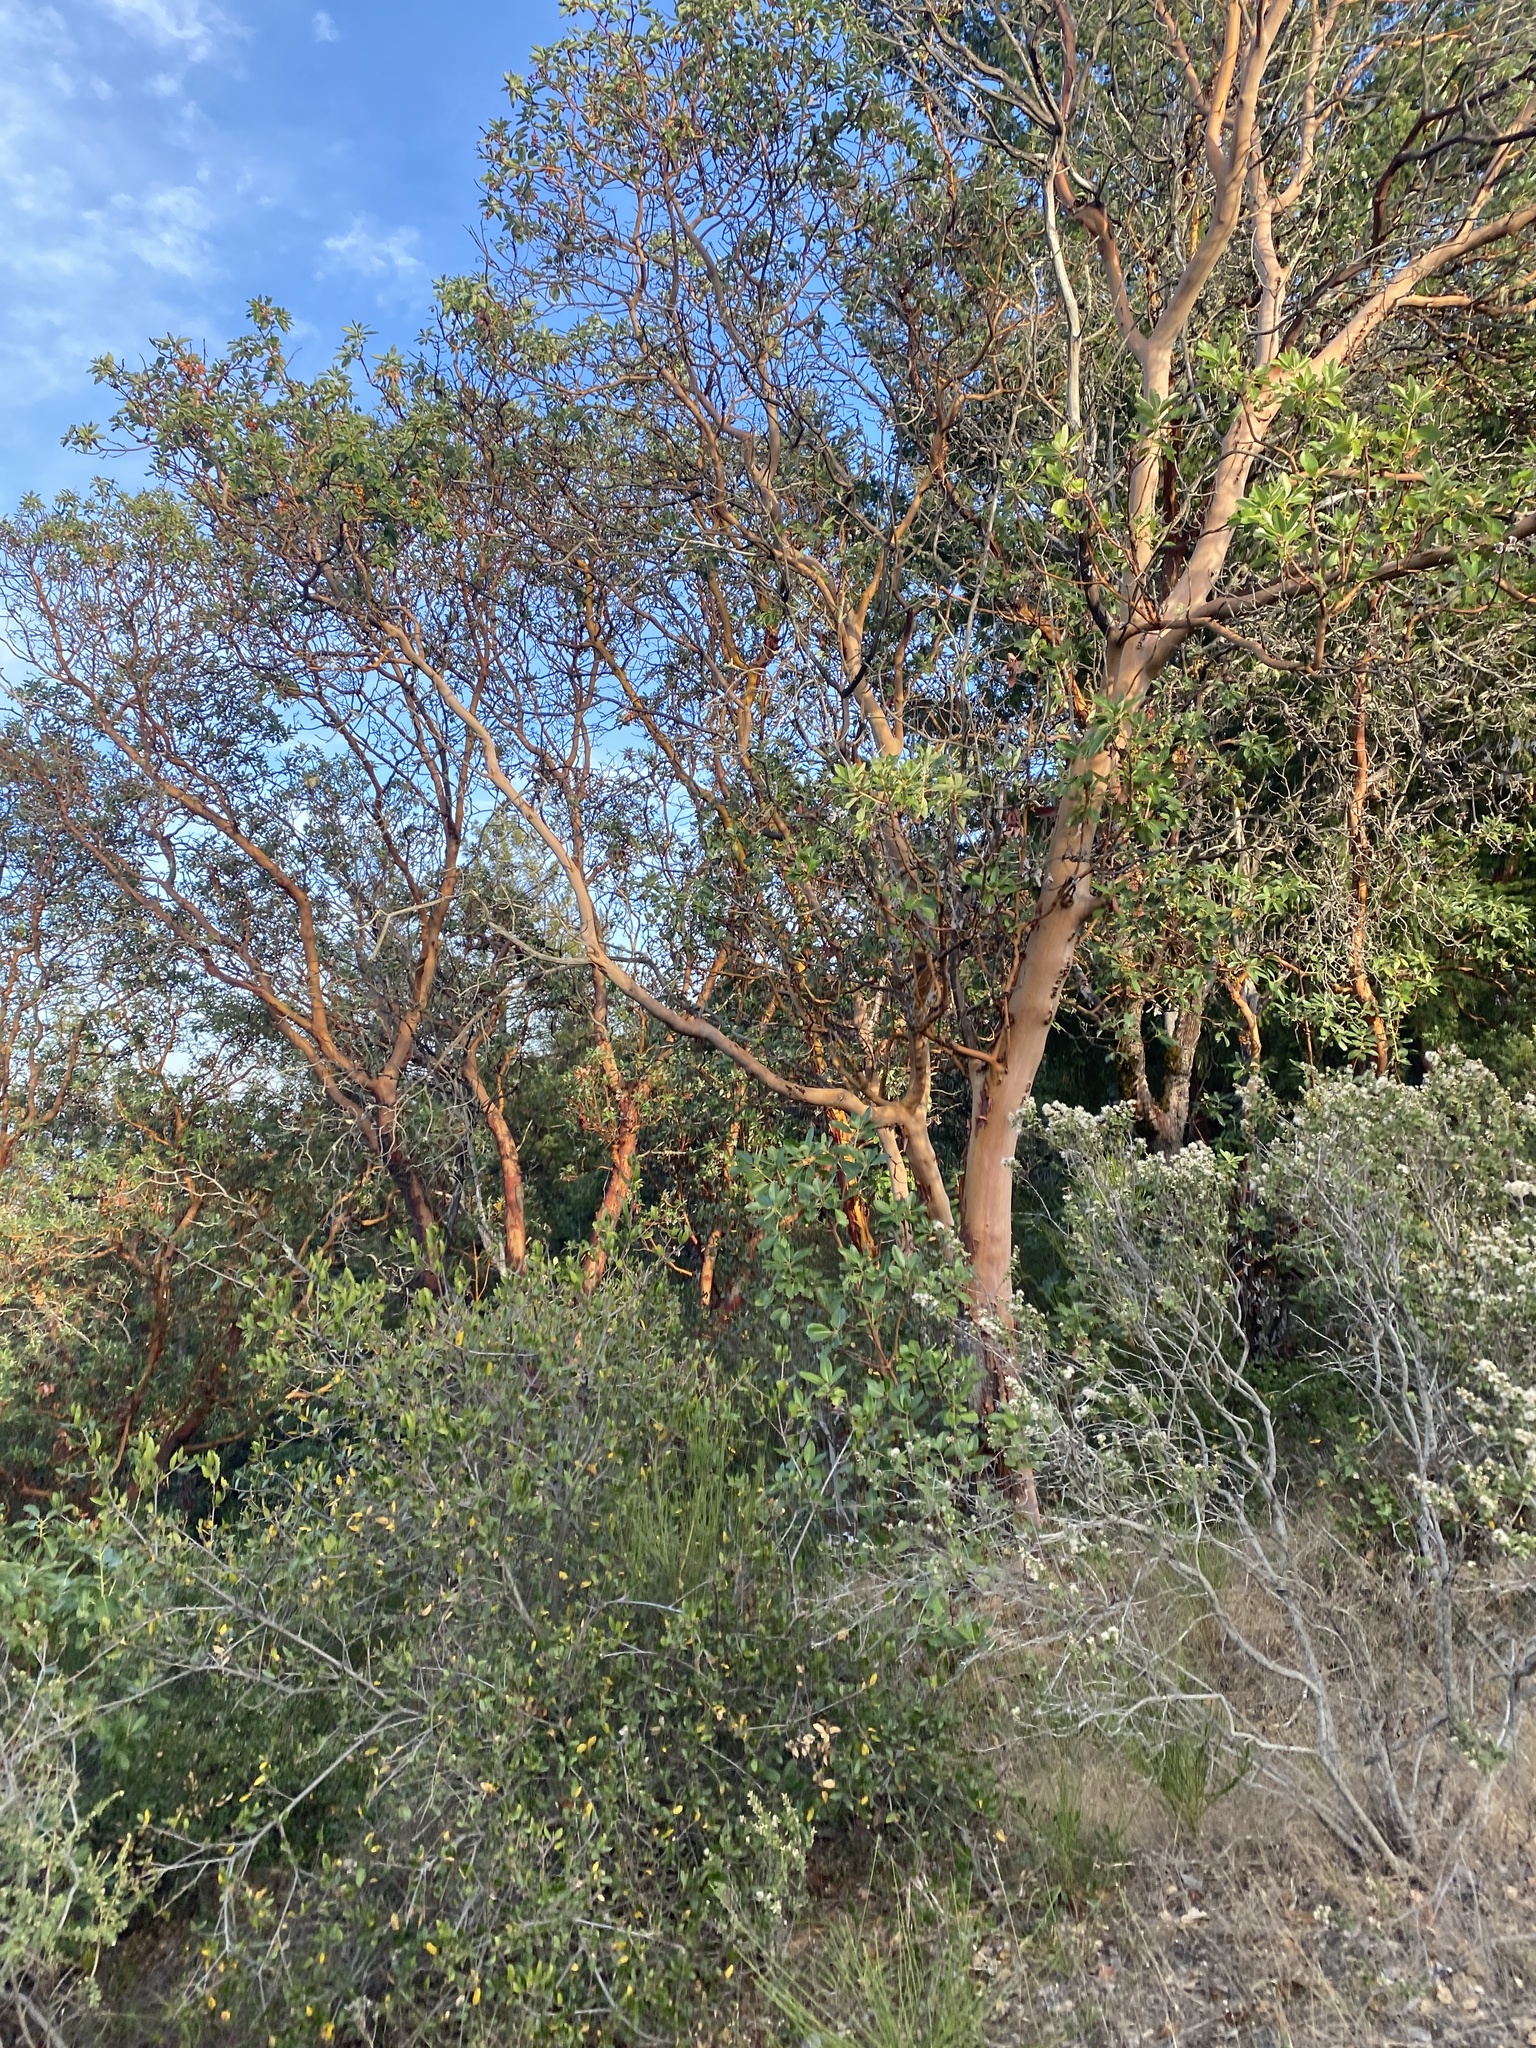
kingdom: Plantae
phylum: Tracheophyta
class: Magnoliopsida
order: Ericales
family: Ericaceae
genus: Arbutus
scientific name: Arbutus menziesii
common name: Pacific madrone
